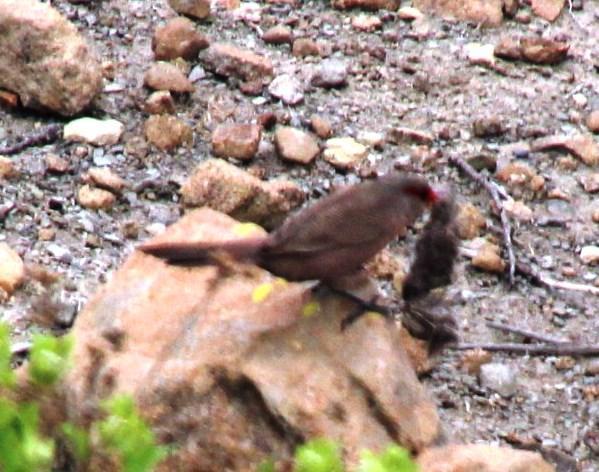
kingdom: Animalia
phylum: Chordata
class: Aves
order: Passeriformes
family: Estrildidae
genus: Estrilda
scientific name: Estrilda astrild
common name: Common waxbill
